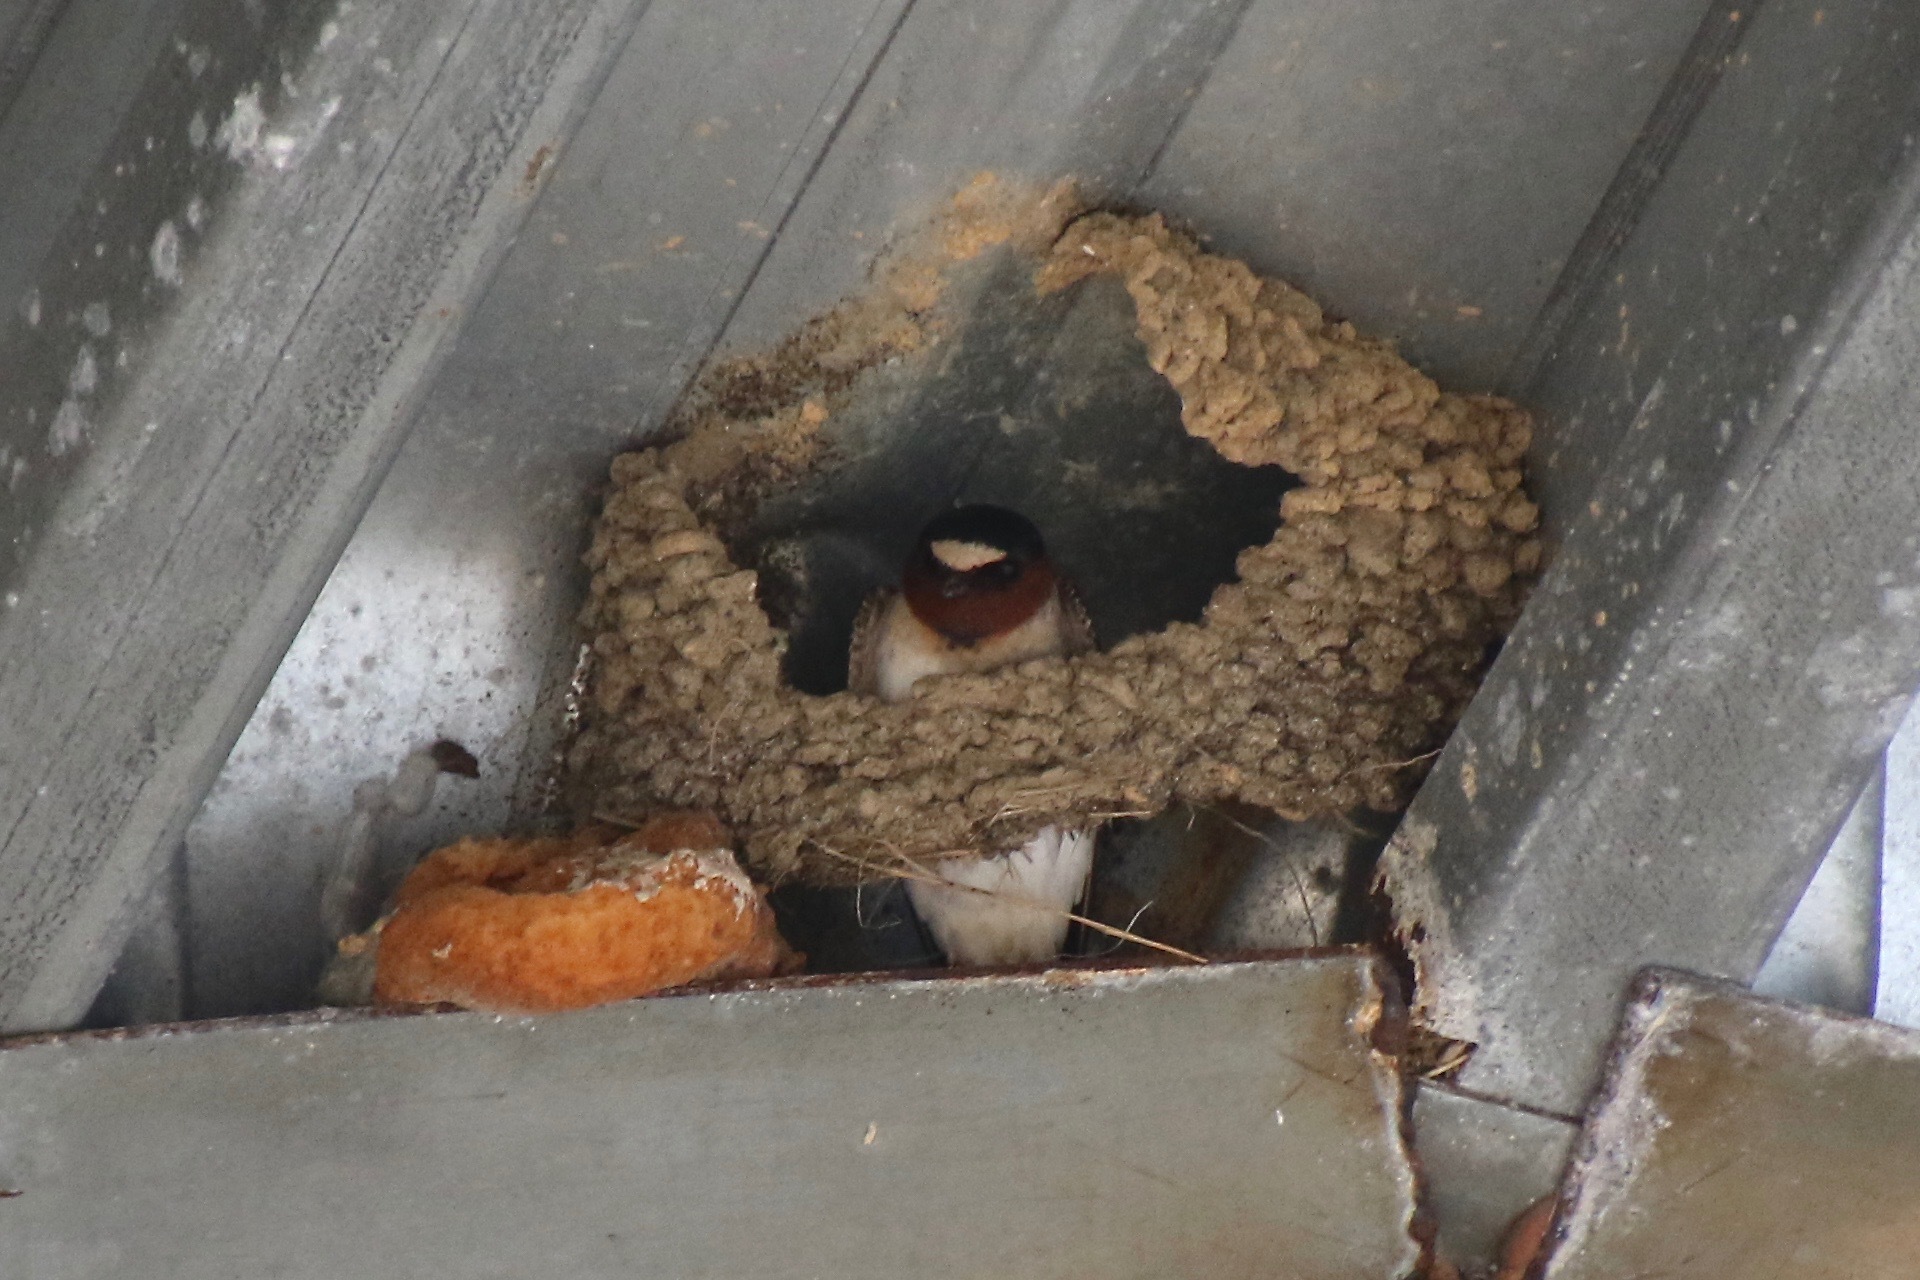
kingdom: Animalia
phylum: Chordata
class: Aves
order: Passeriformes
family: Hirundinidae
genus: Petrochelidon
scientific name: Petrochelidon pyrrhonota
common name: American cliff swallow
